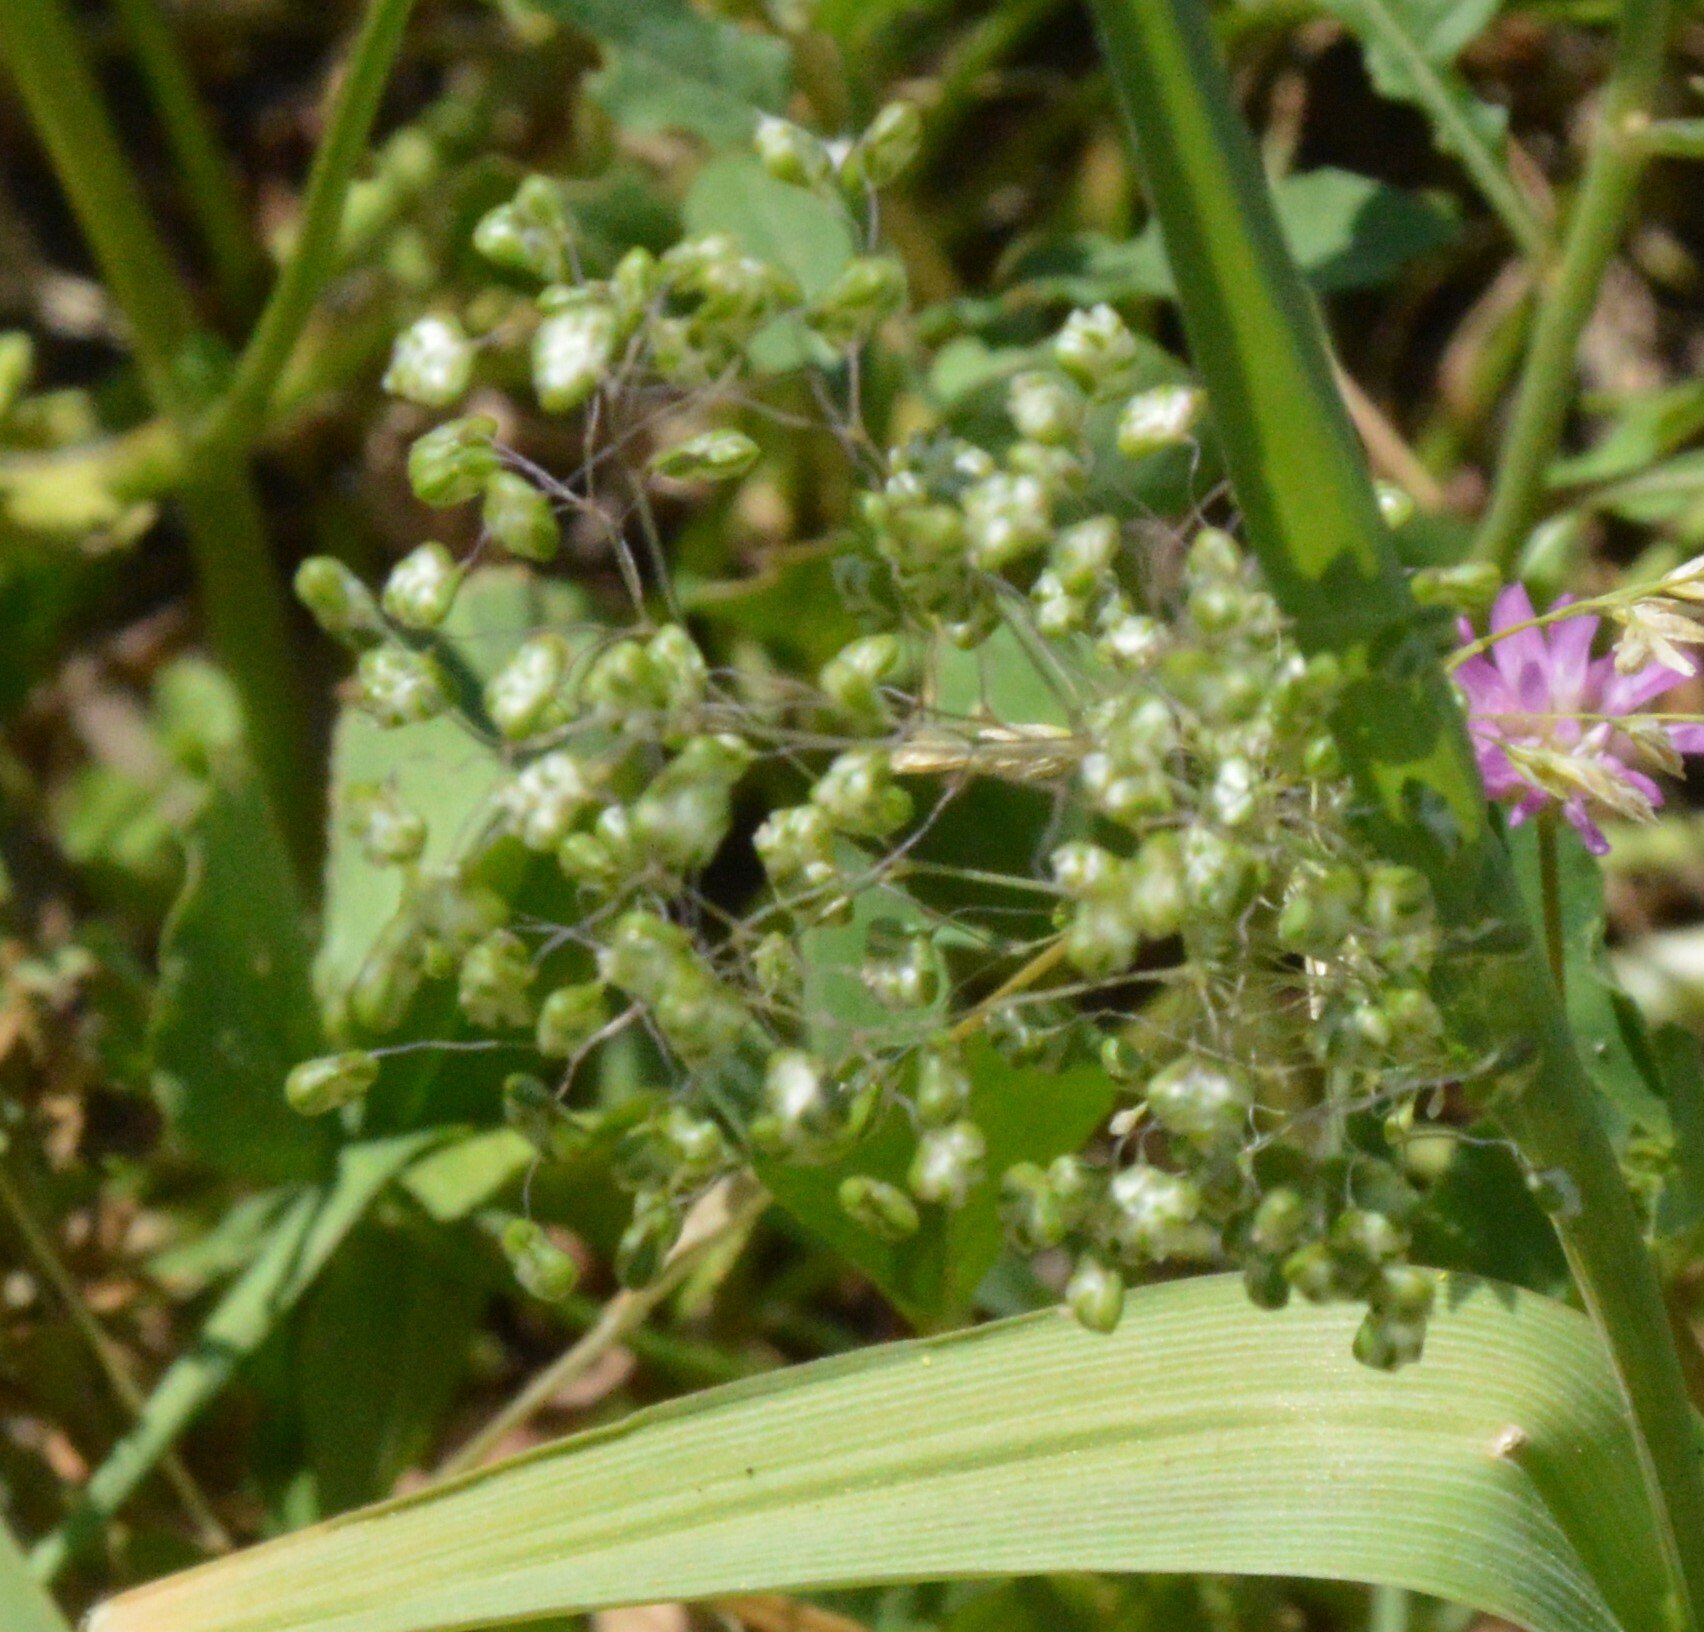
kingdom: Plantae
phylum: Tracheophyta
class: Liliopsida
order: Poales
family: Poaceae
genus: Briza
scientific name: Briza minor
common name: Lesser quaking-grass
